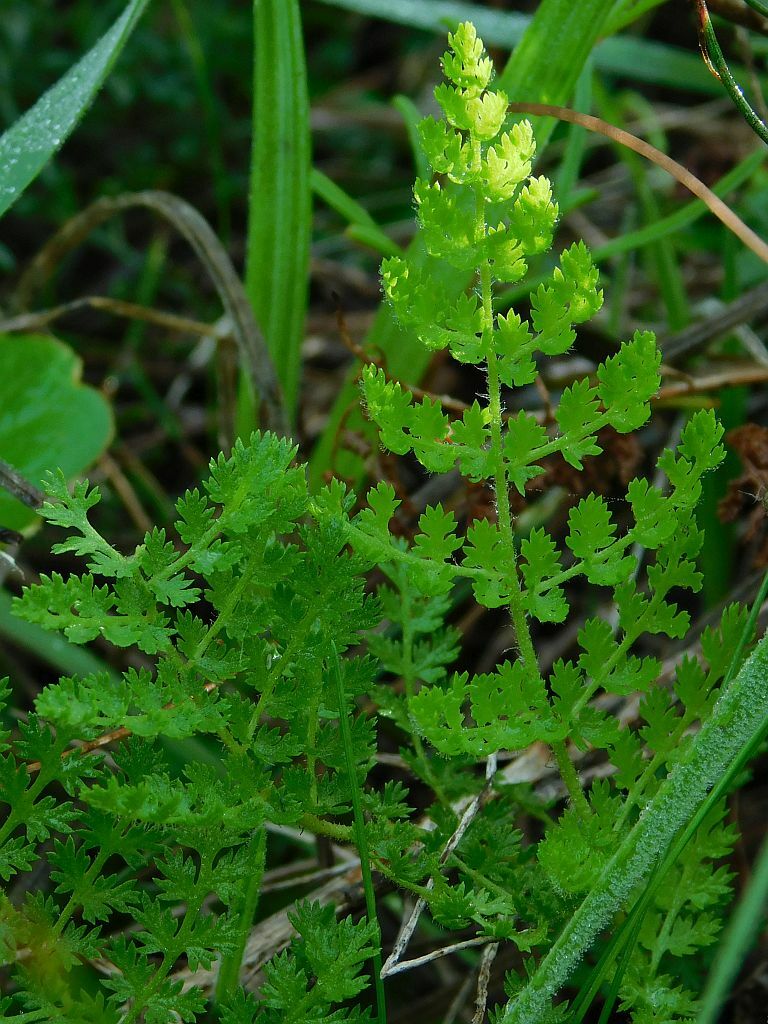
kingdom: Plantae
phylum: Tracheophyta
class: Polypodiopsida
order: Schizaeales
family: Anemiaceae
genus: Anemia
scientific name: Anemia caffrorum
